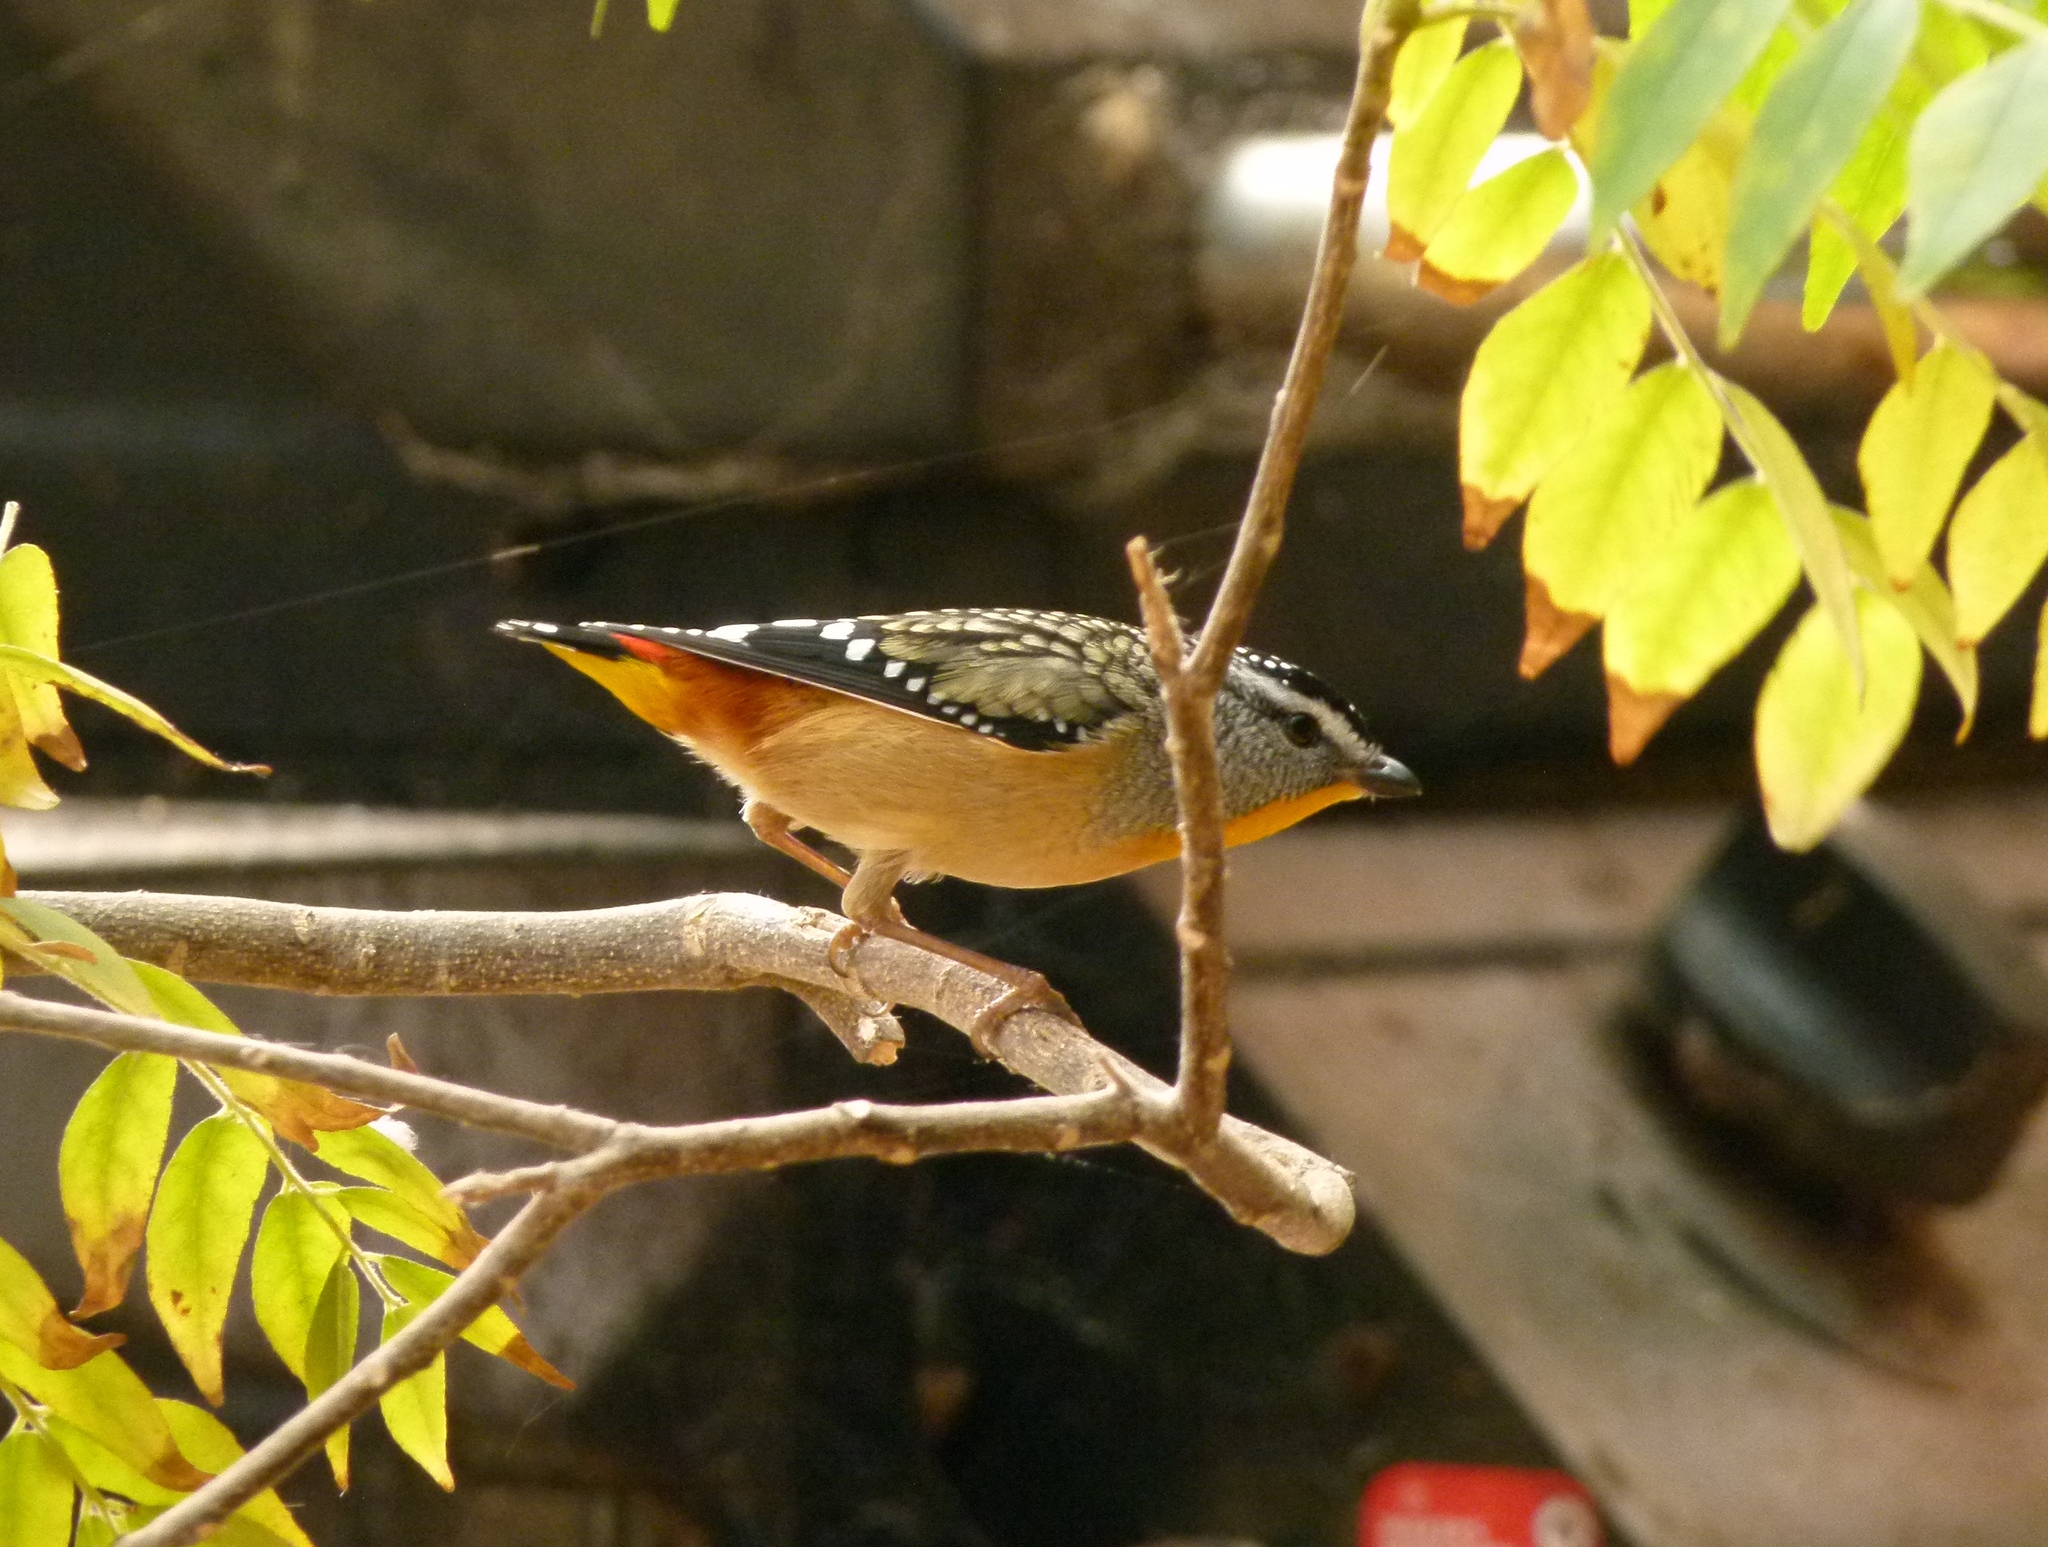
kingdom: Animalia
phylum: Chordata
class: Aves
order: Passeriformes
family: Pardalotidae
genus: Pardalotus
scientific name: Pardalotus punctatus
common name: Spotted pardalote
